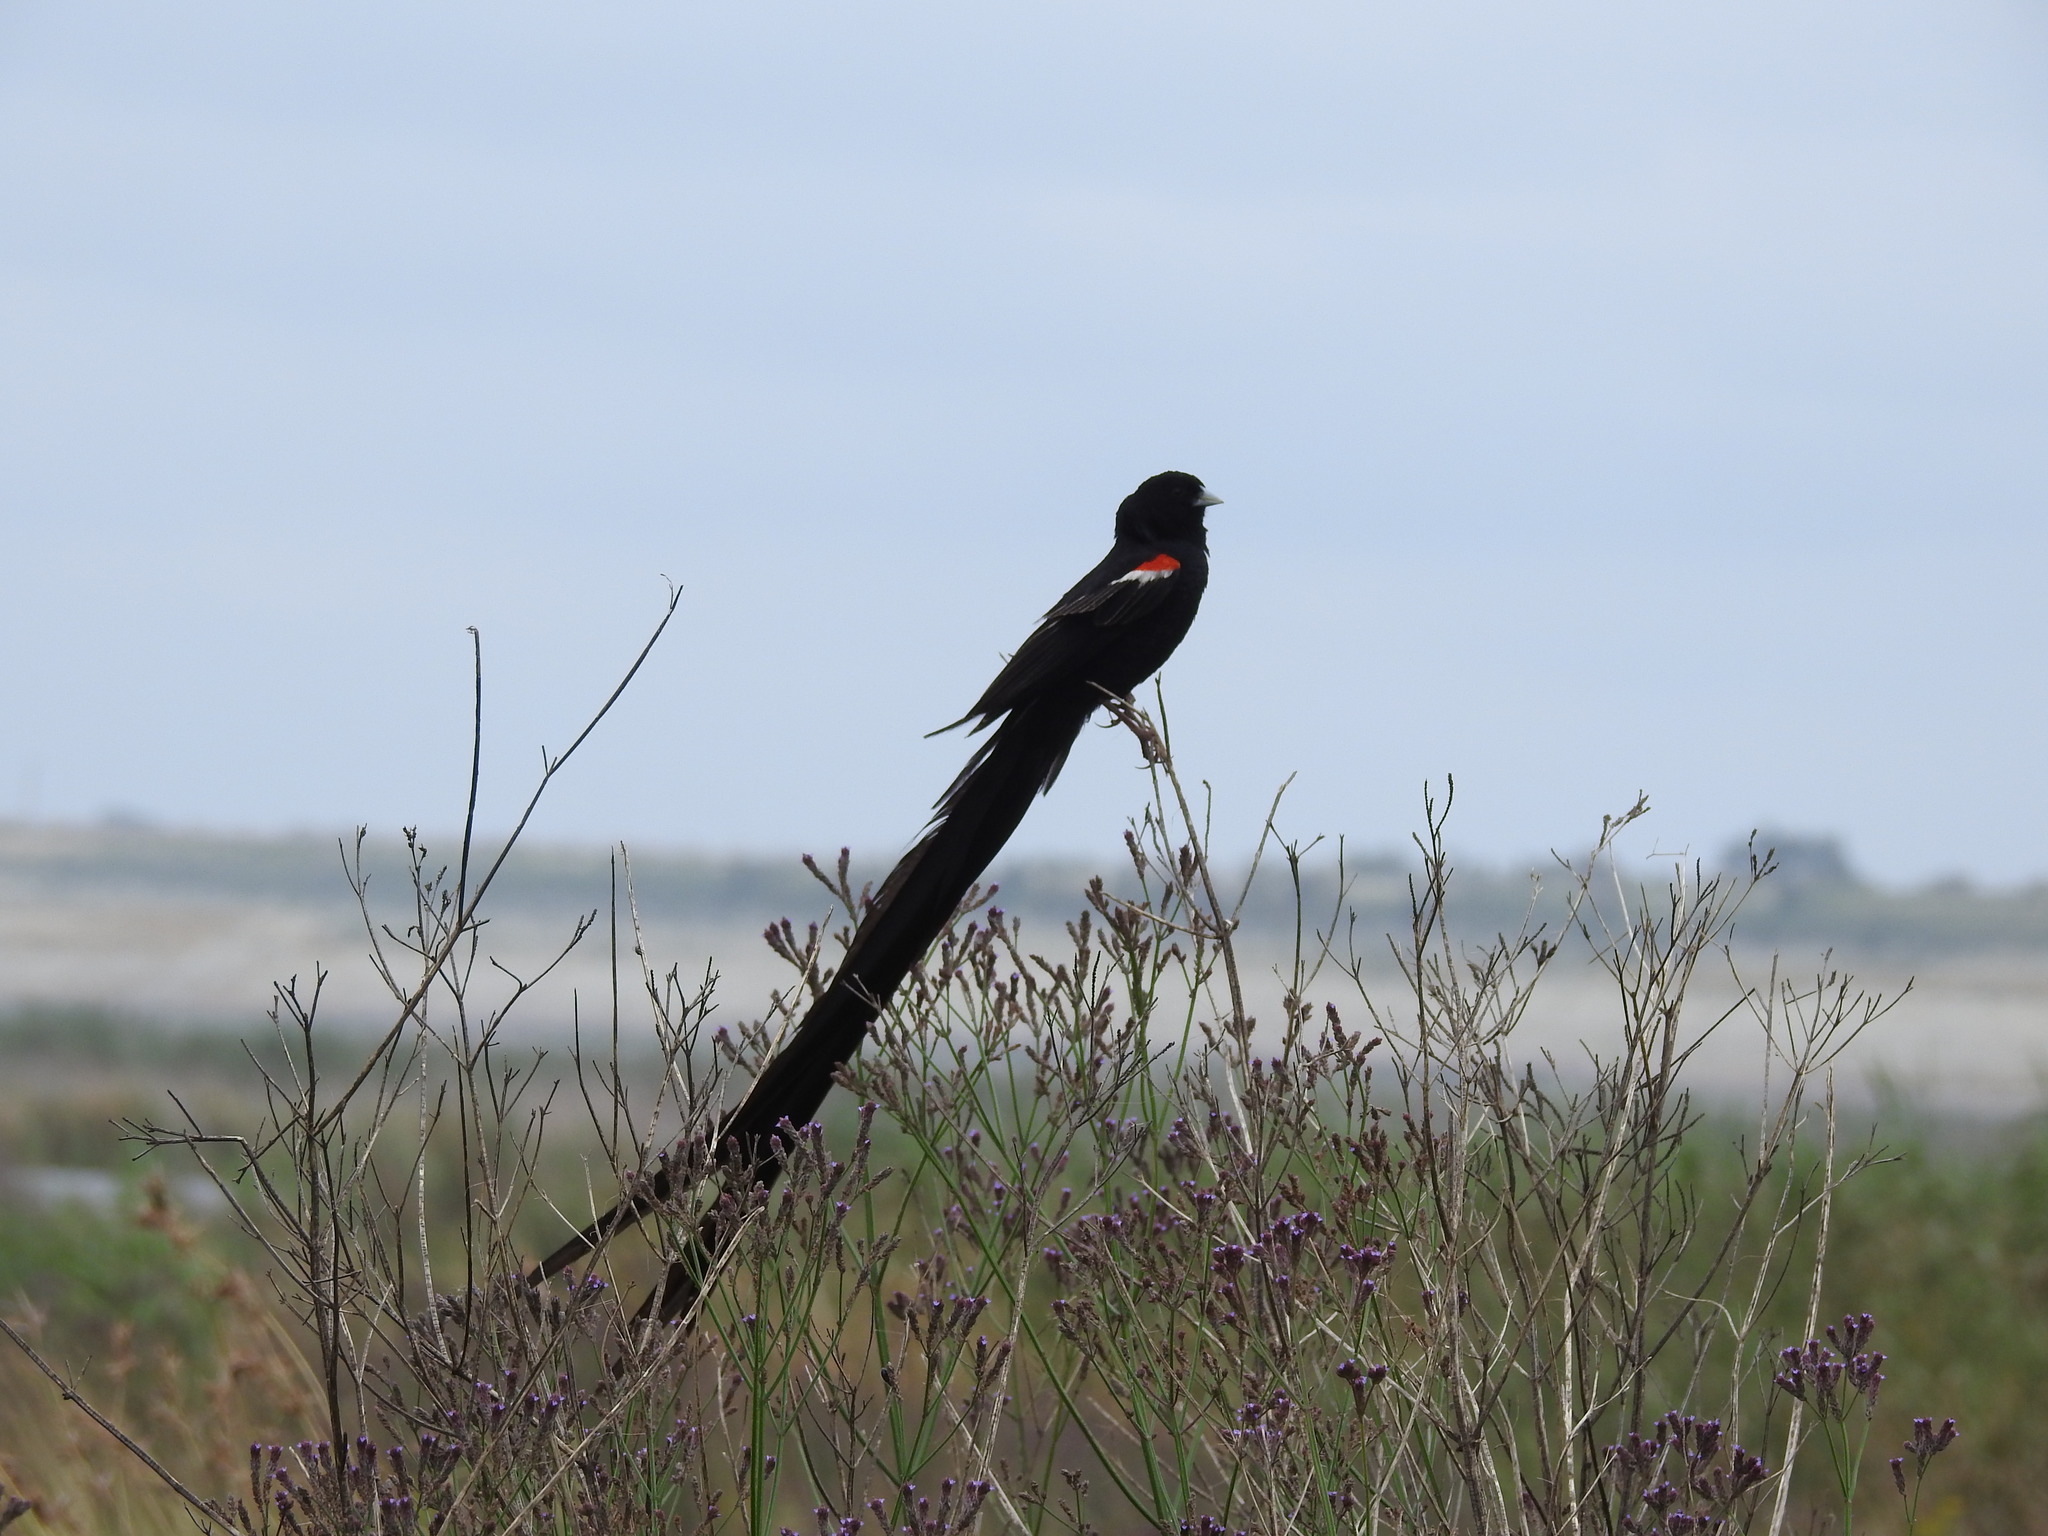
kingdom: Animalia
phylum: Chordata
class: Aves
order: Passeriformes
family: Ploceidae
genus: Euplectes
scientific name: Euplectes progne
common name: Long-tailed widowbird
